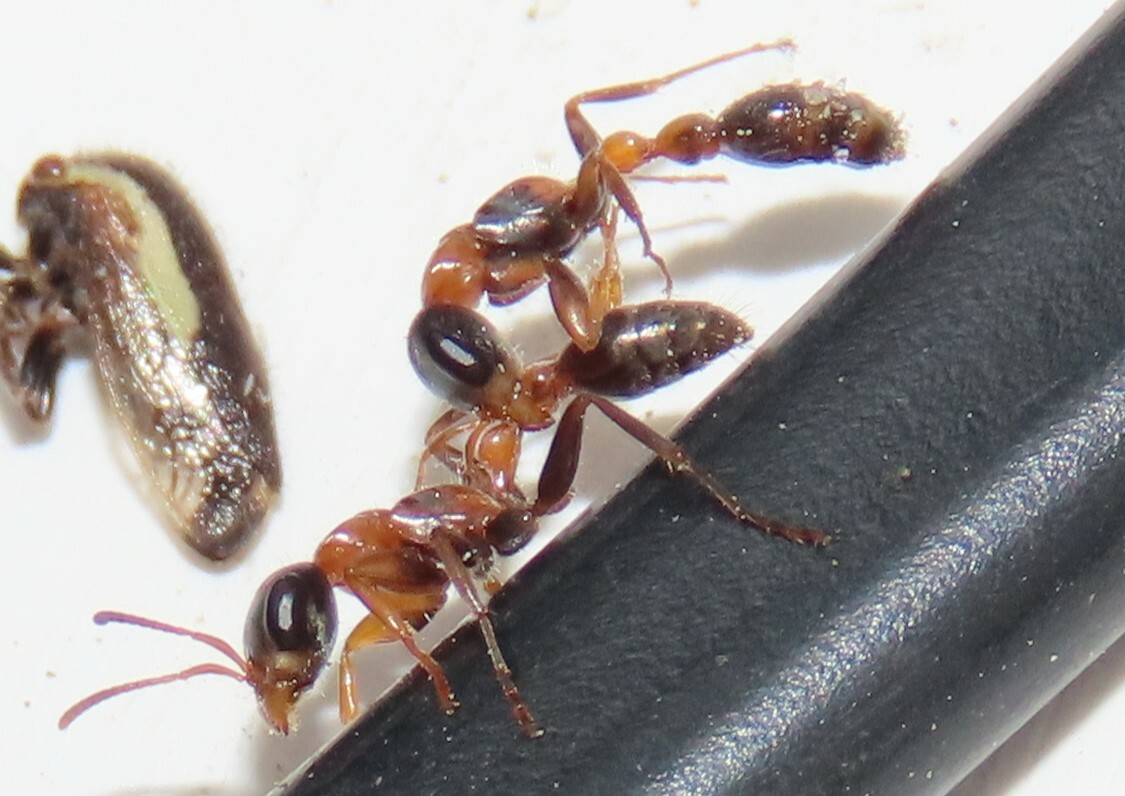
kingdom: Animalia
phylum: Arthropoda
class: Insecta
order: Hymenoptera
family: Formicidae
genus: Pseudomyrmex
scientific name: Pseudomyrmex gracilis
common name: Graceful twig ant
